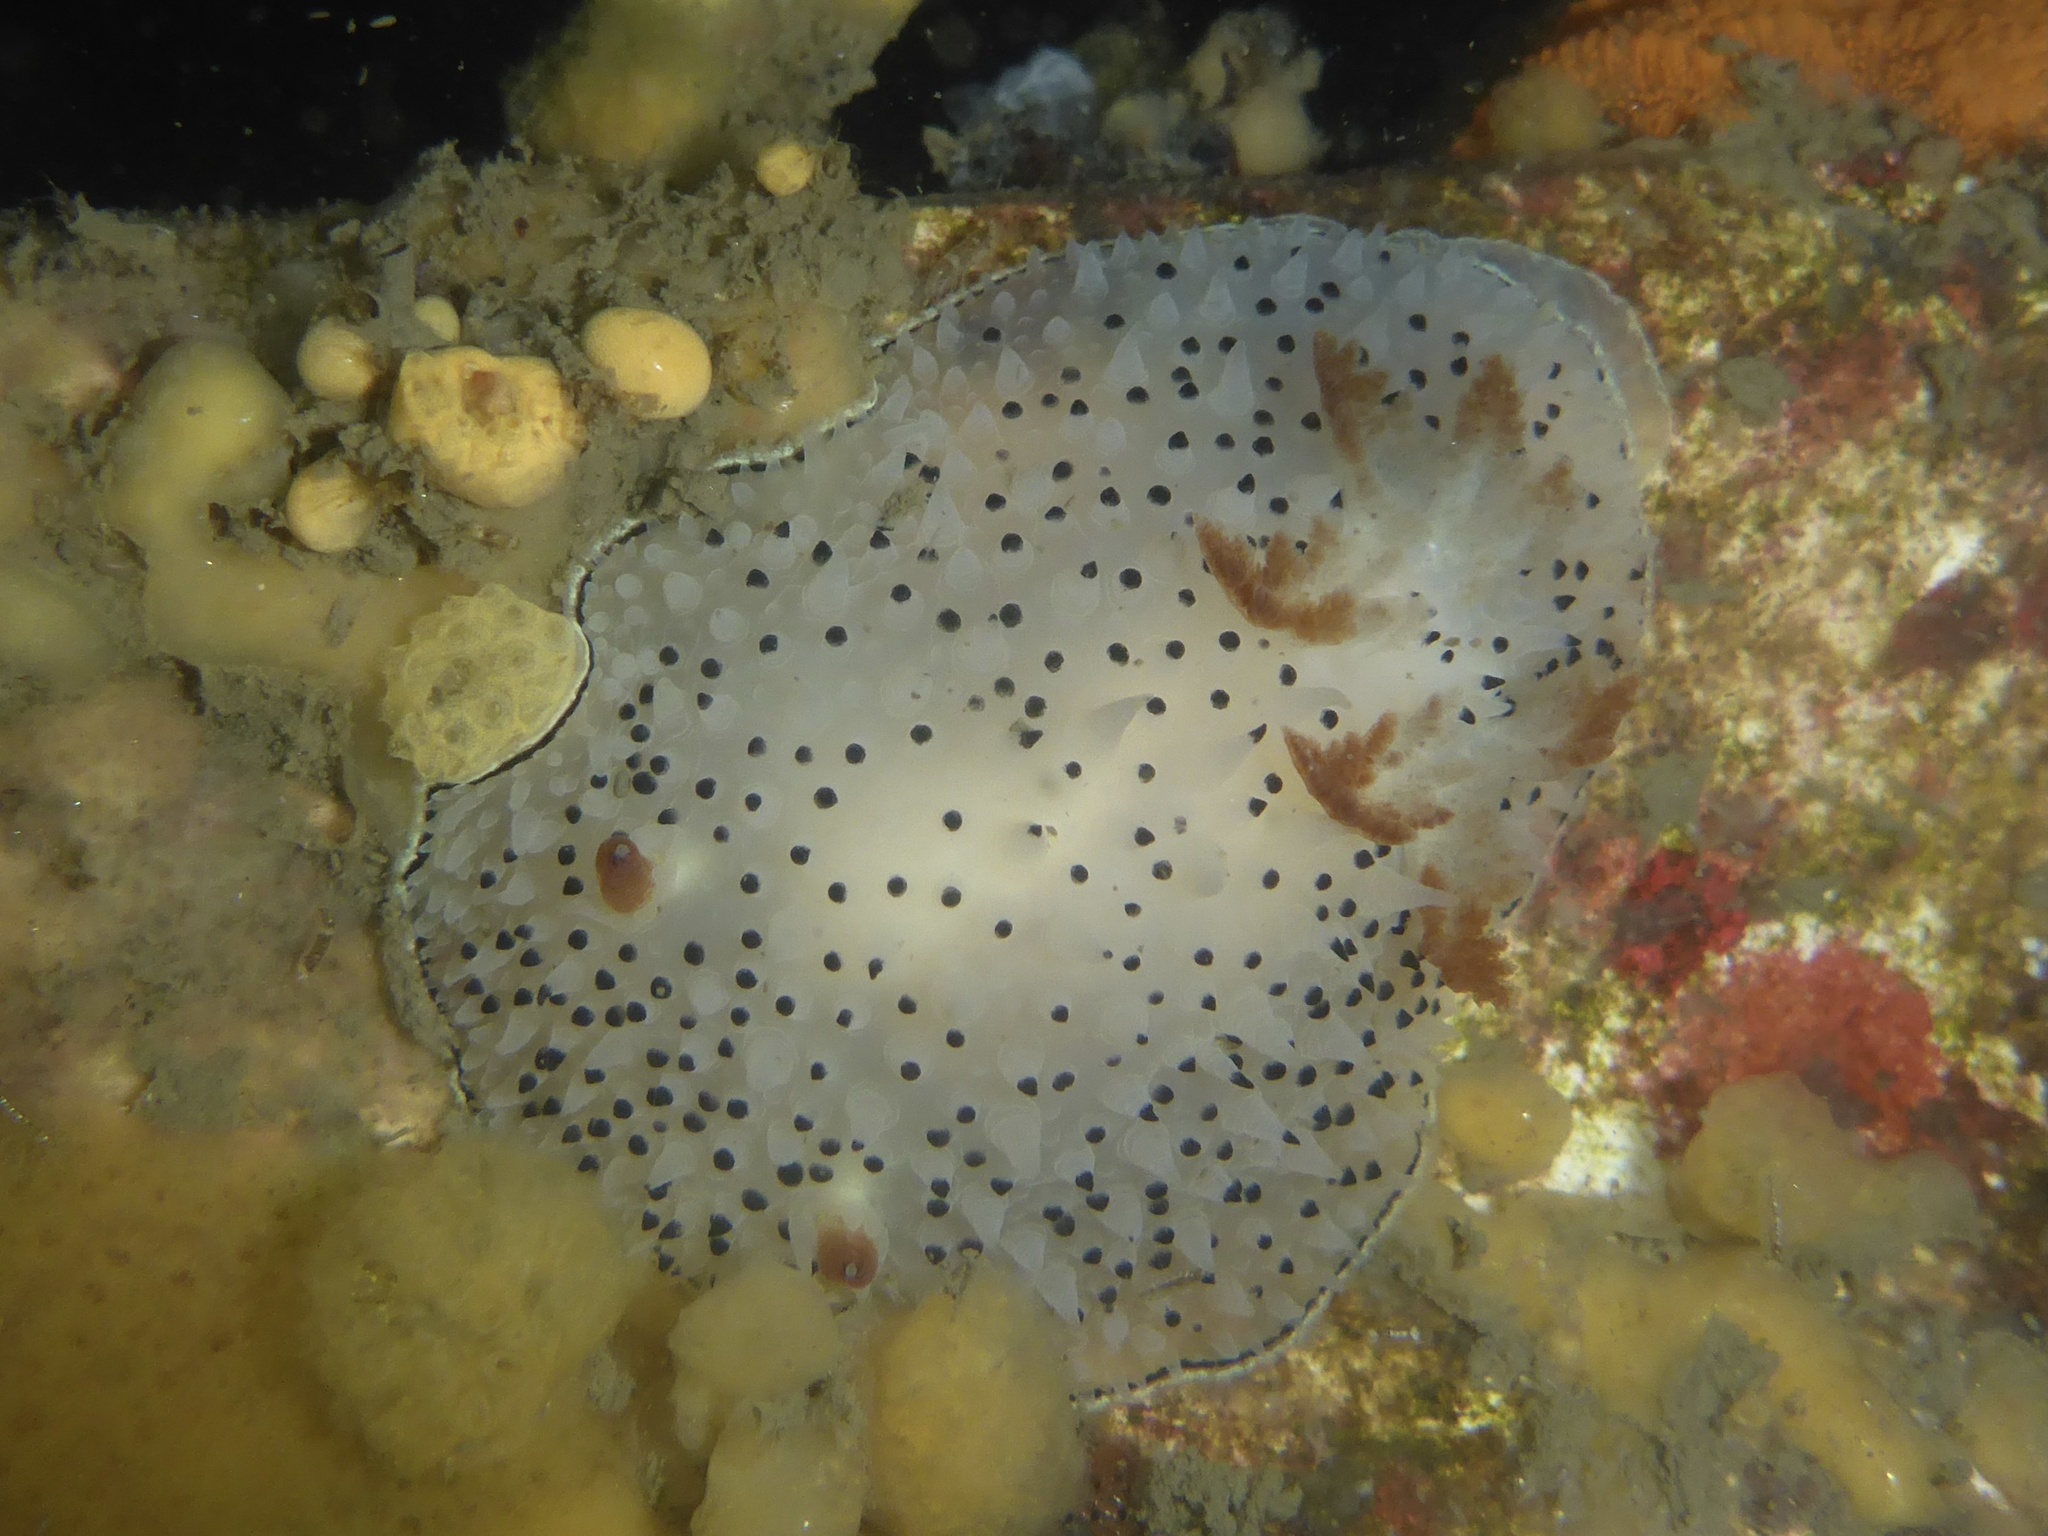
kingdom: Animalia
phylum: Mollusca
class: Gastropoda
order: Nudibranchia
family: Onchidorididae
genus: Acanthodoris
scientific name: Acanthodoris rhodoceras
